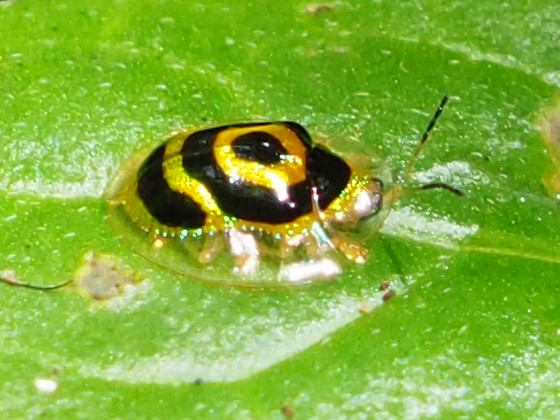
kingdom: Animalia
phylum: Arthropoda
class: Insecta
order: Coleoptera
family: Chrysomelidae
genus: Ischnocodia
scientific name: Ischnocodia annulus
